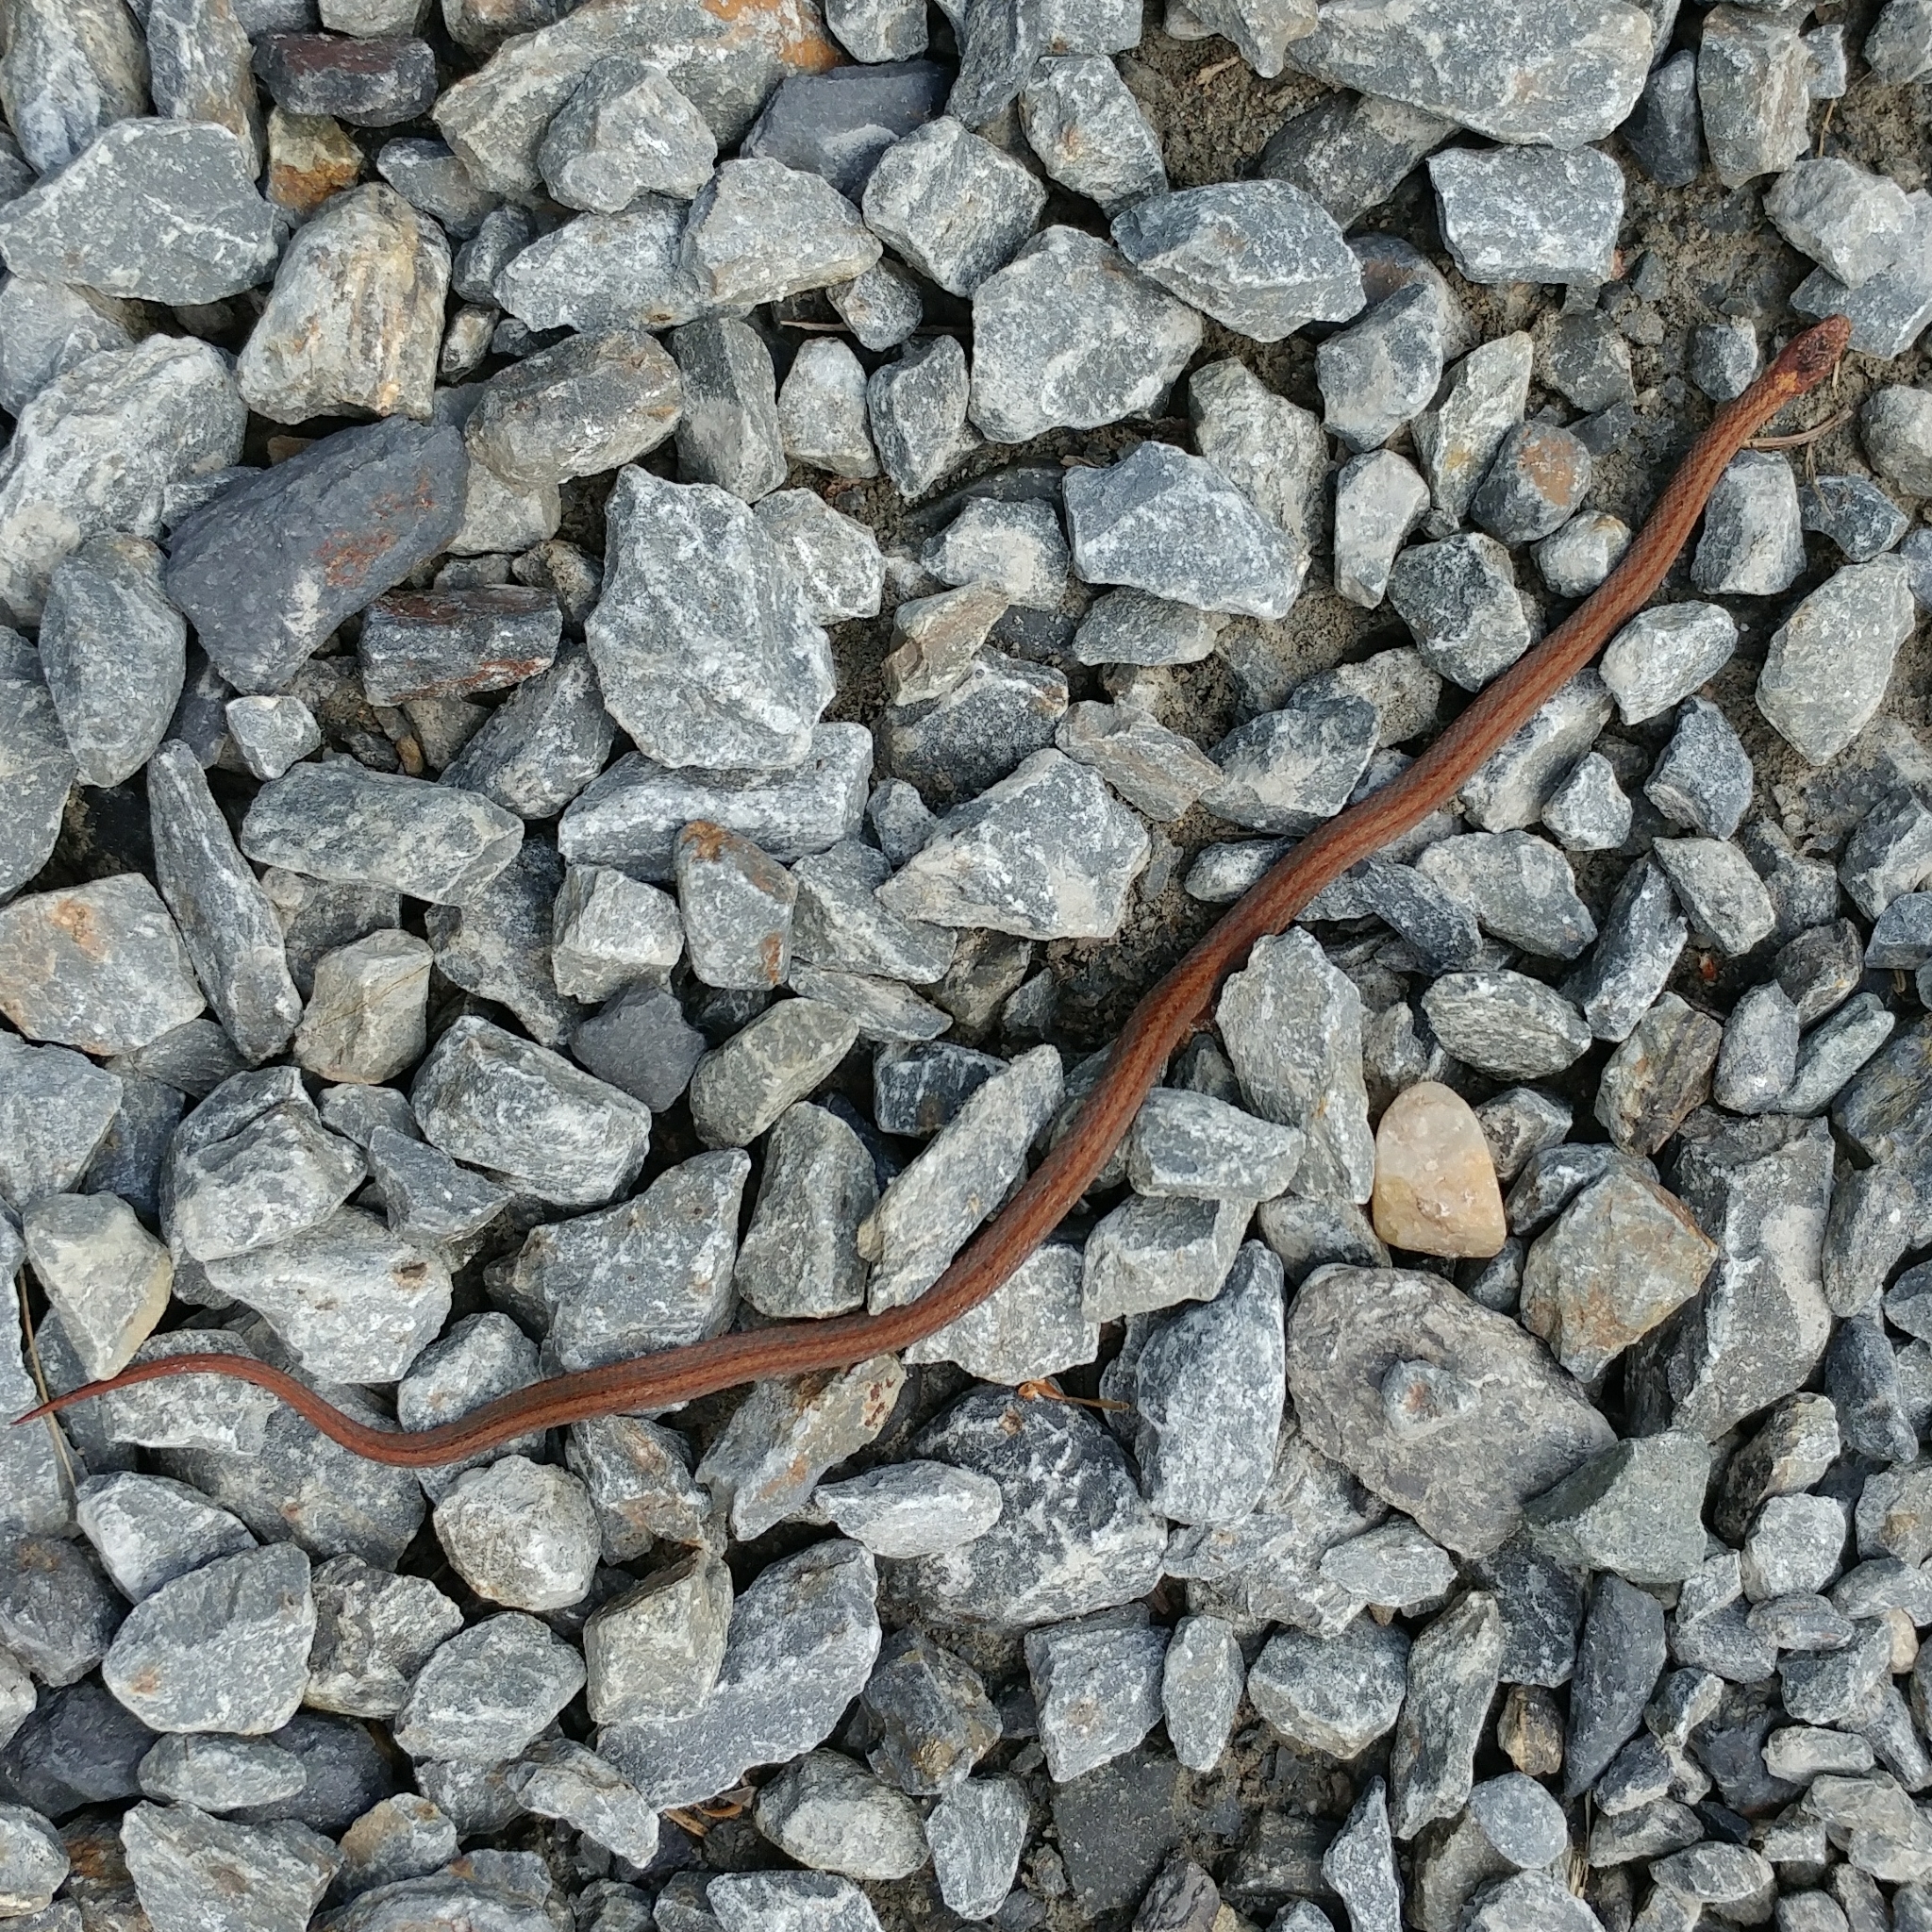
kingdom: Animalia
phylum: Chordata
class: Squamata
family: Colubridae
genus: Storeria
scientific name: Storeria occipitomaculata
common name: Redbelly snake
